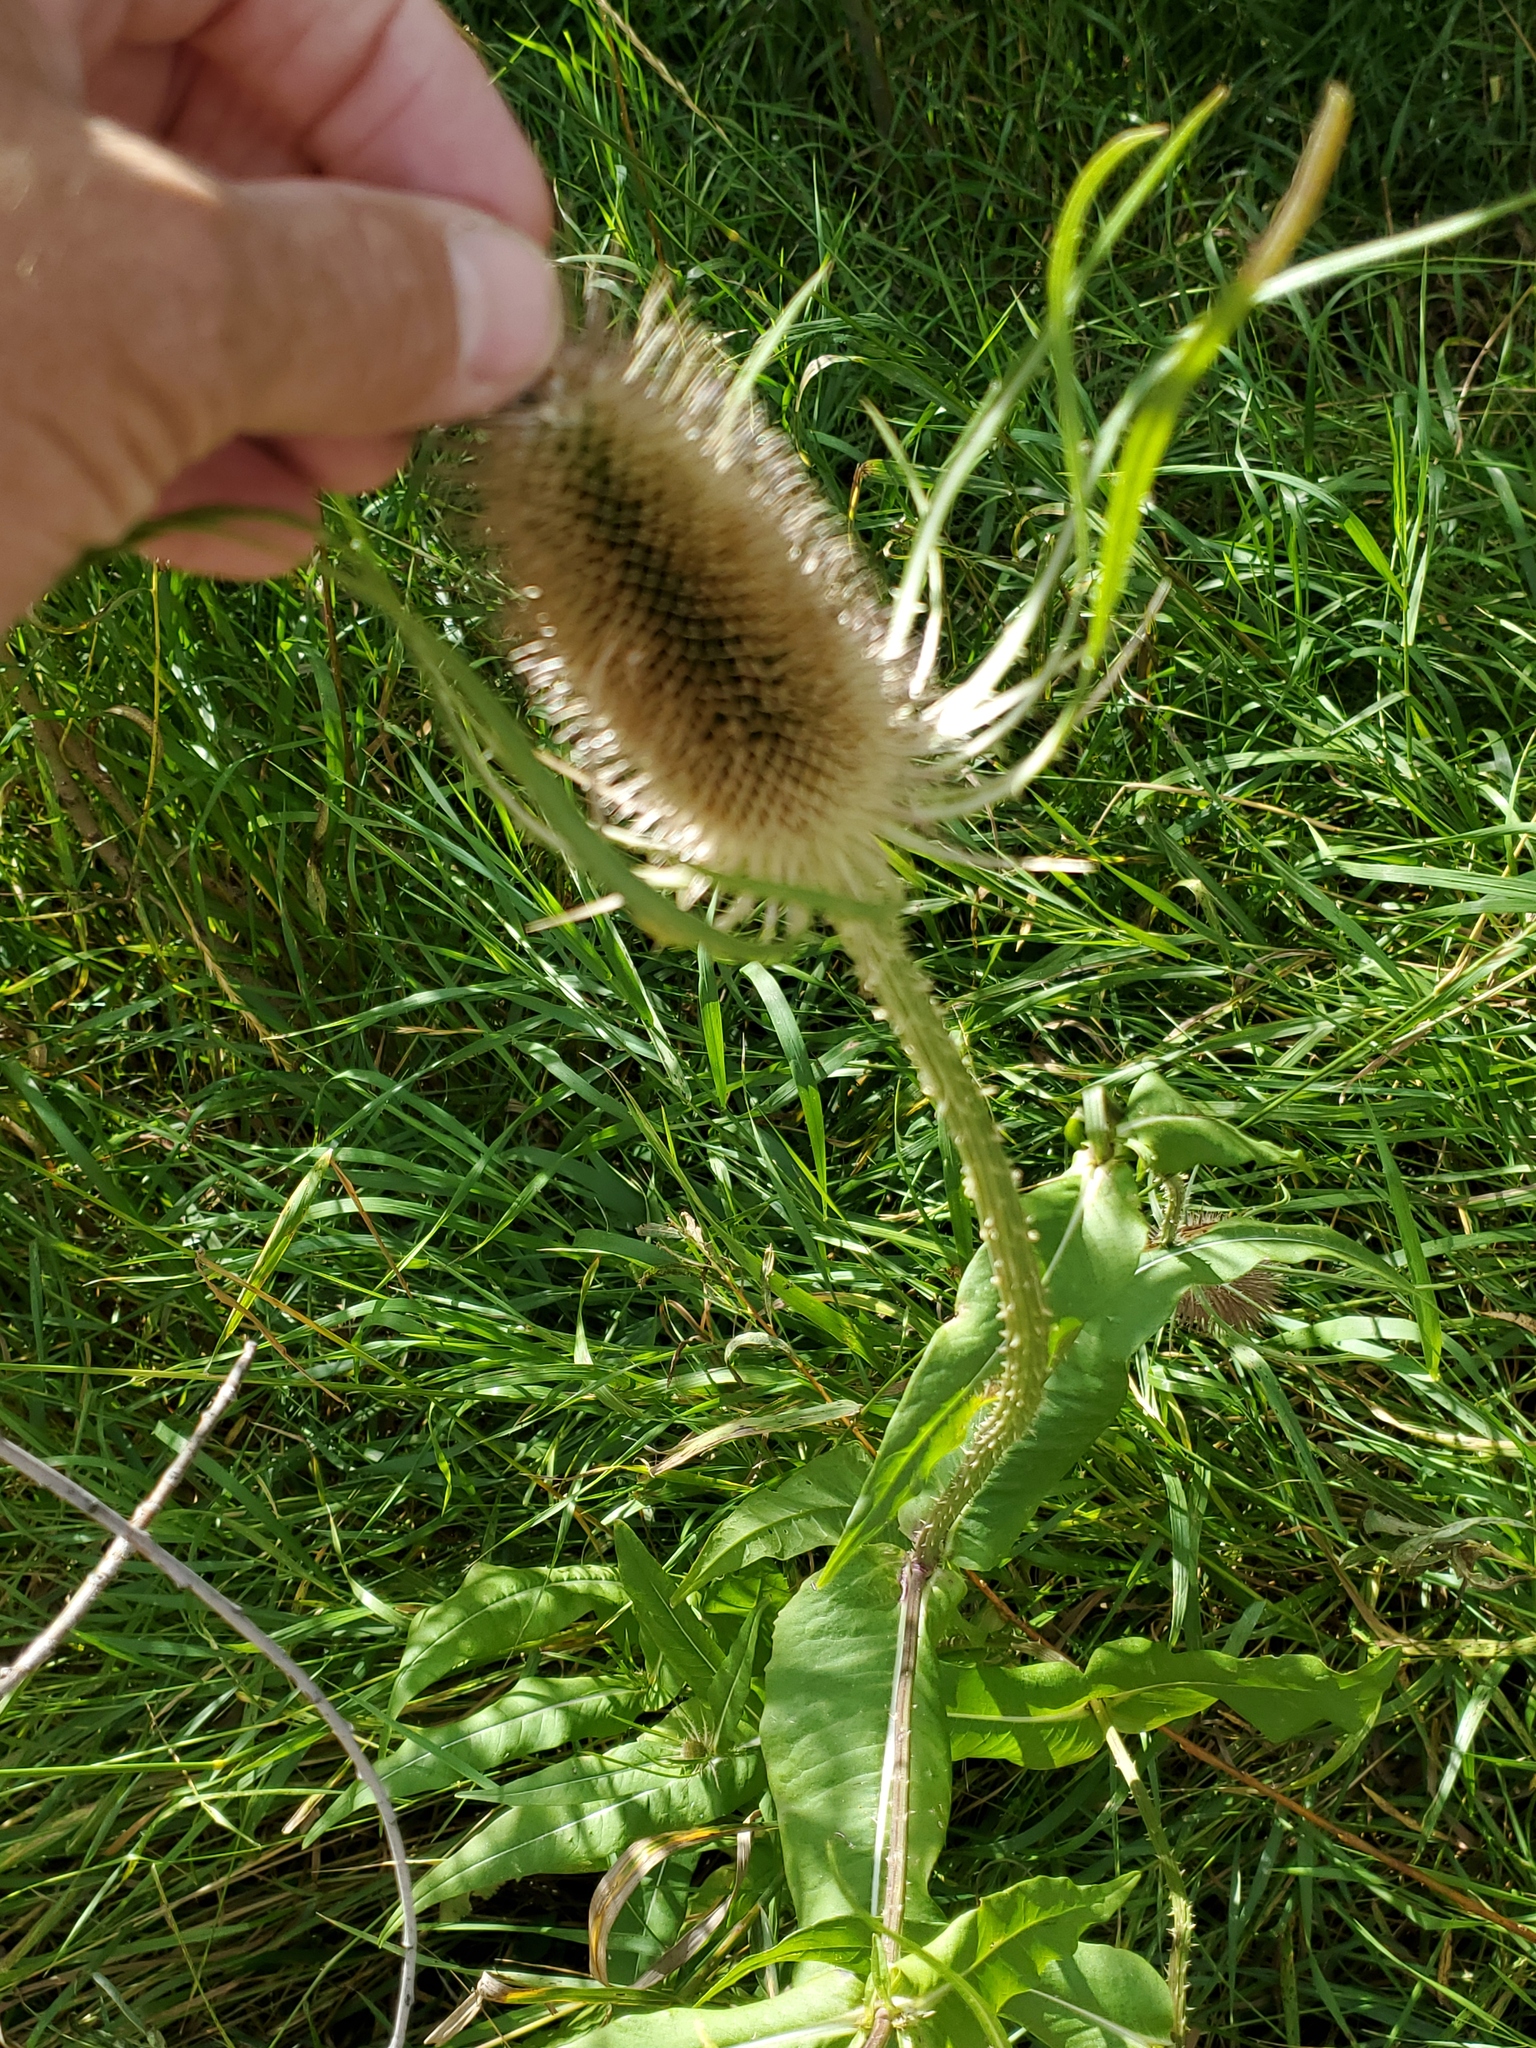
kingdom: Plantae
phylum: Tracheophyta
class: Magnoliopsida
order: Dipsacales
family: Caprifoliaceae
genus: Dipsacus
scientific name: Dipsacus fullonum
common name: Teasel
